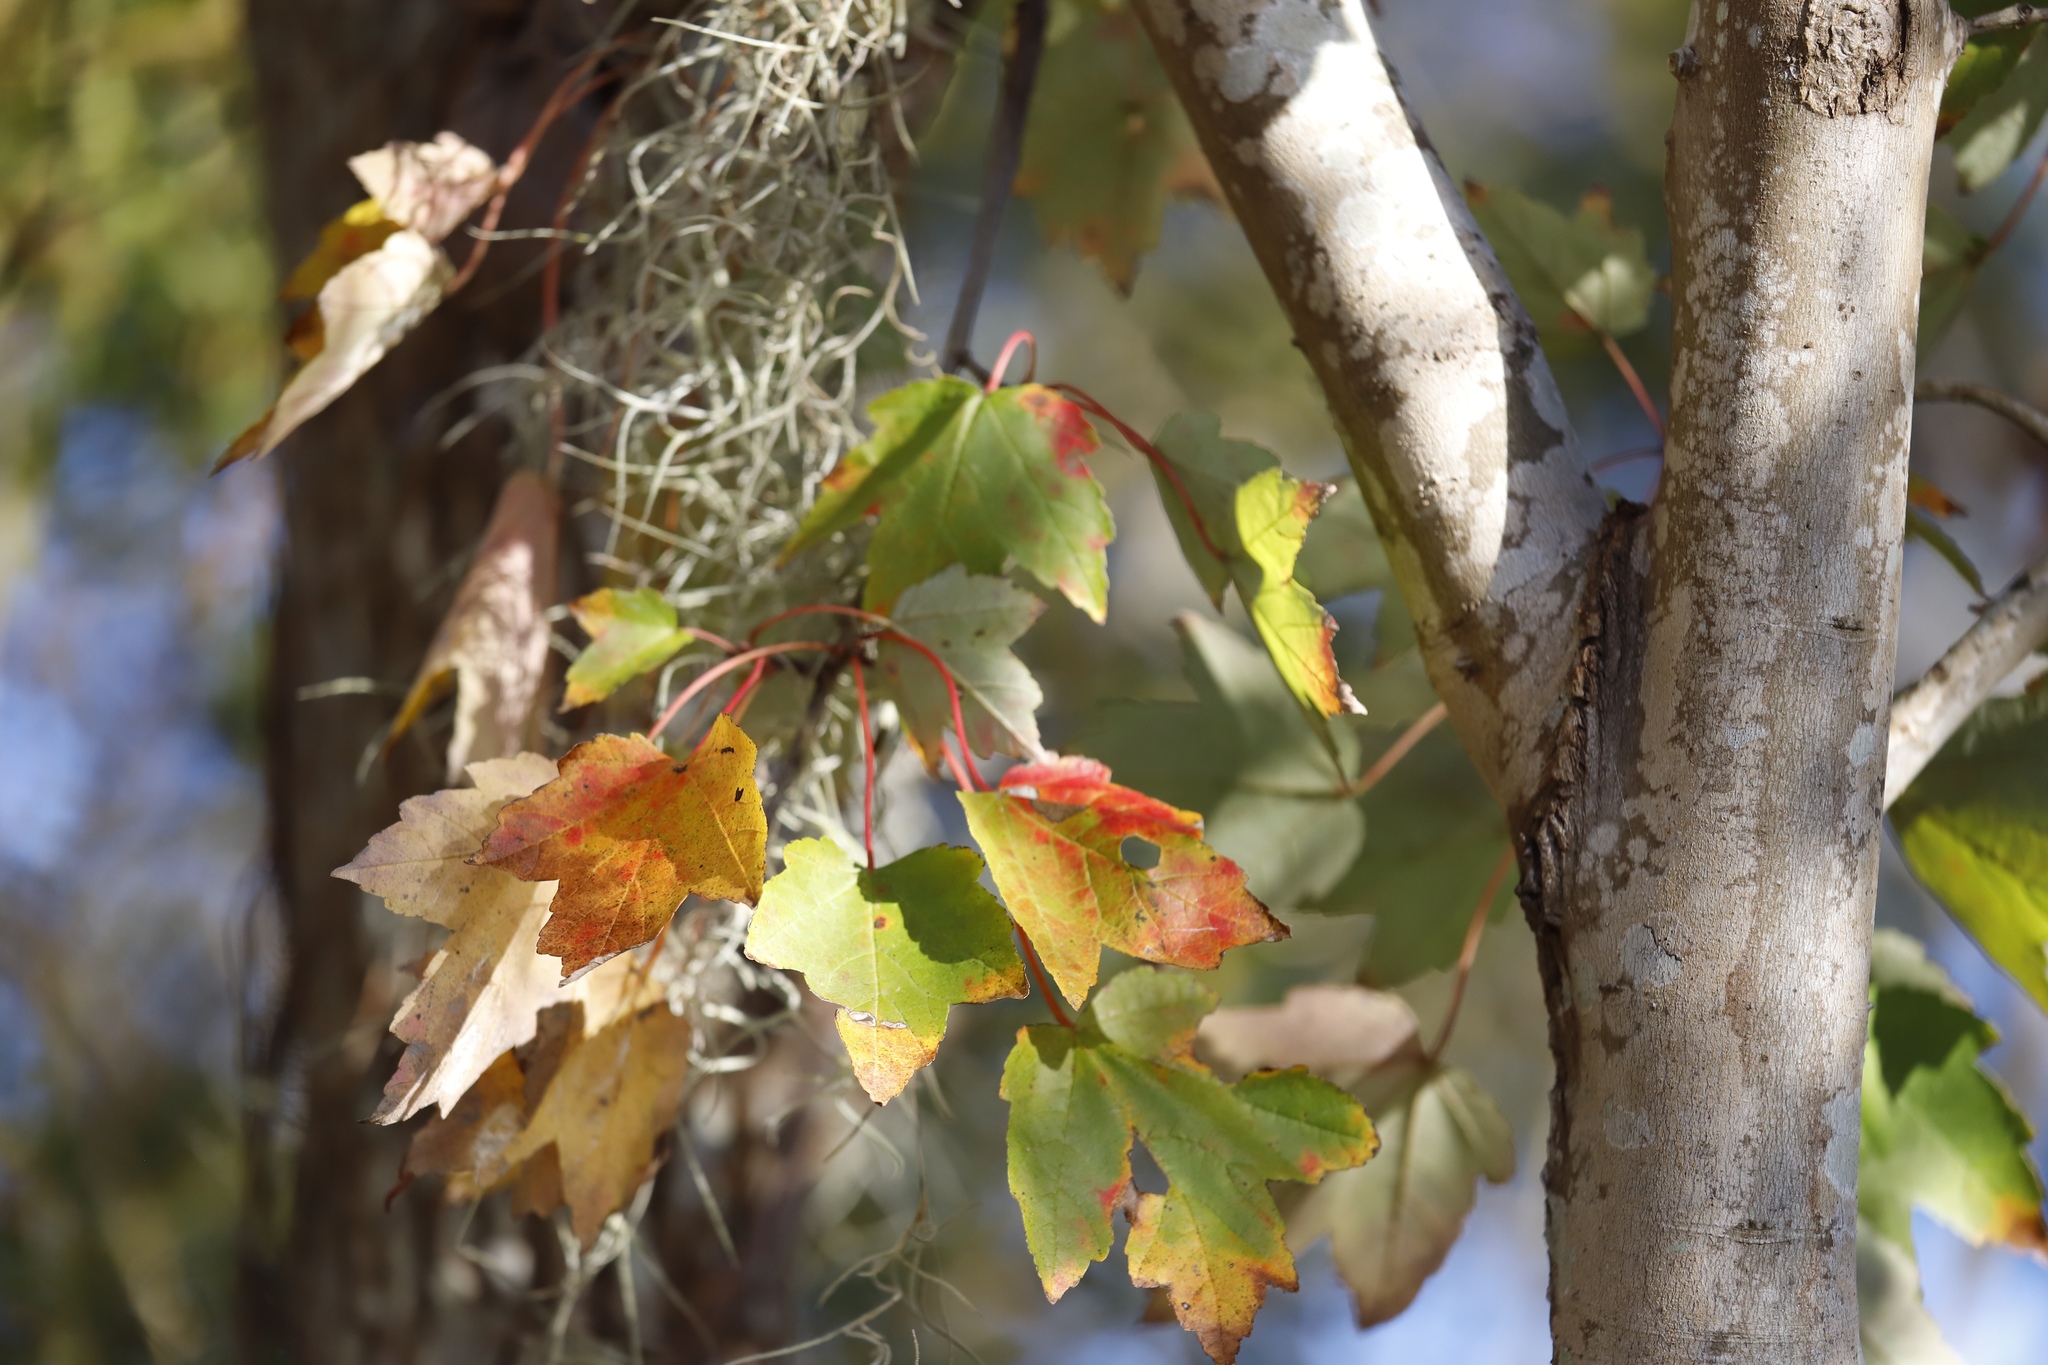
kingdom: Plantae
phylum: Tracheophyta
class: Magnoliopsida
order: Sapindales
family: Sapindaceae
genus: Acer
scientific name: Acer rubrum
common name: Red maple
